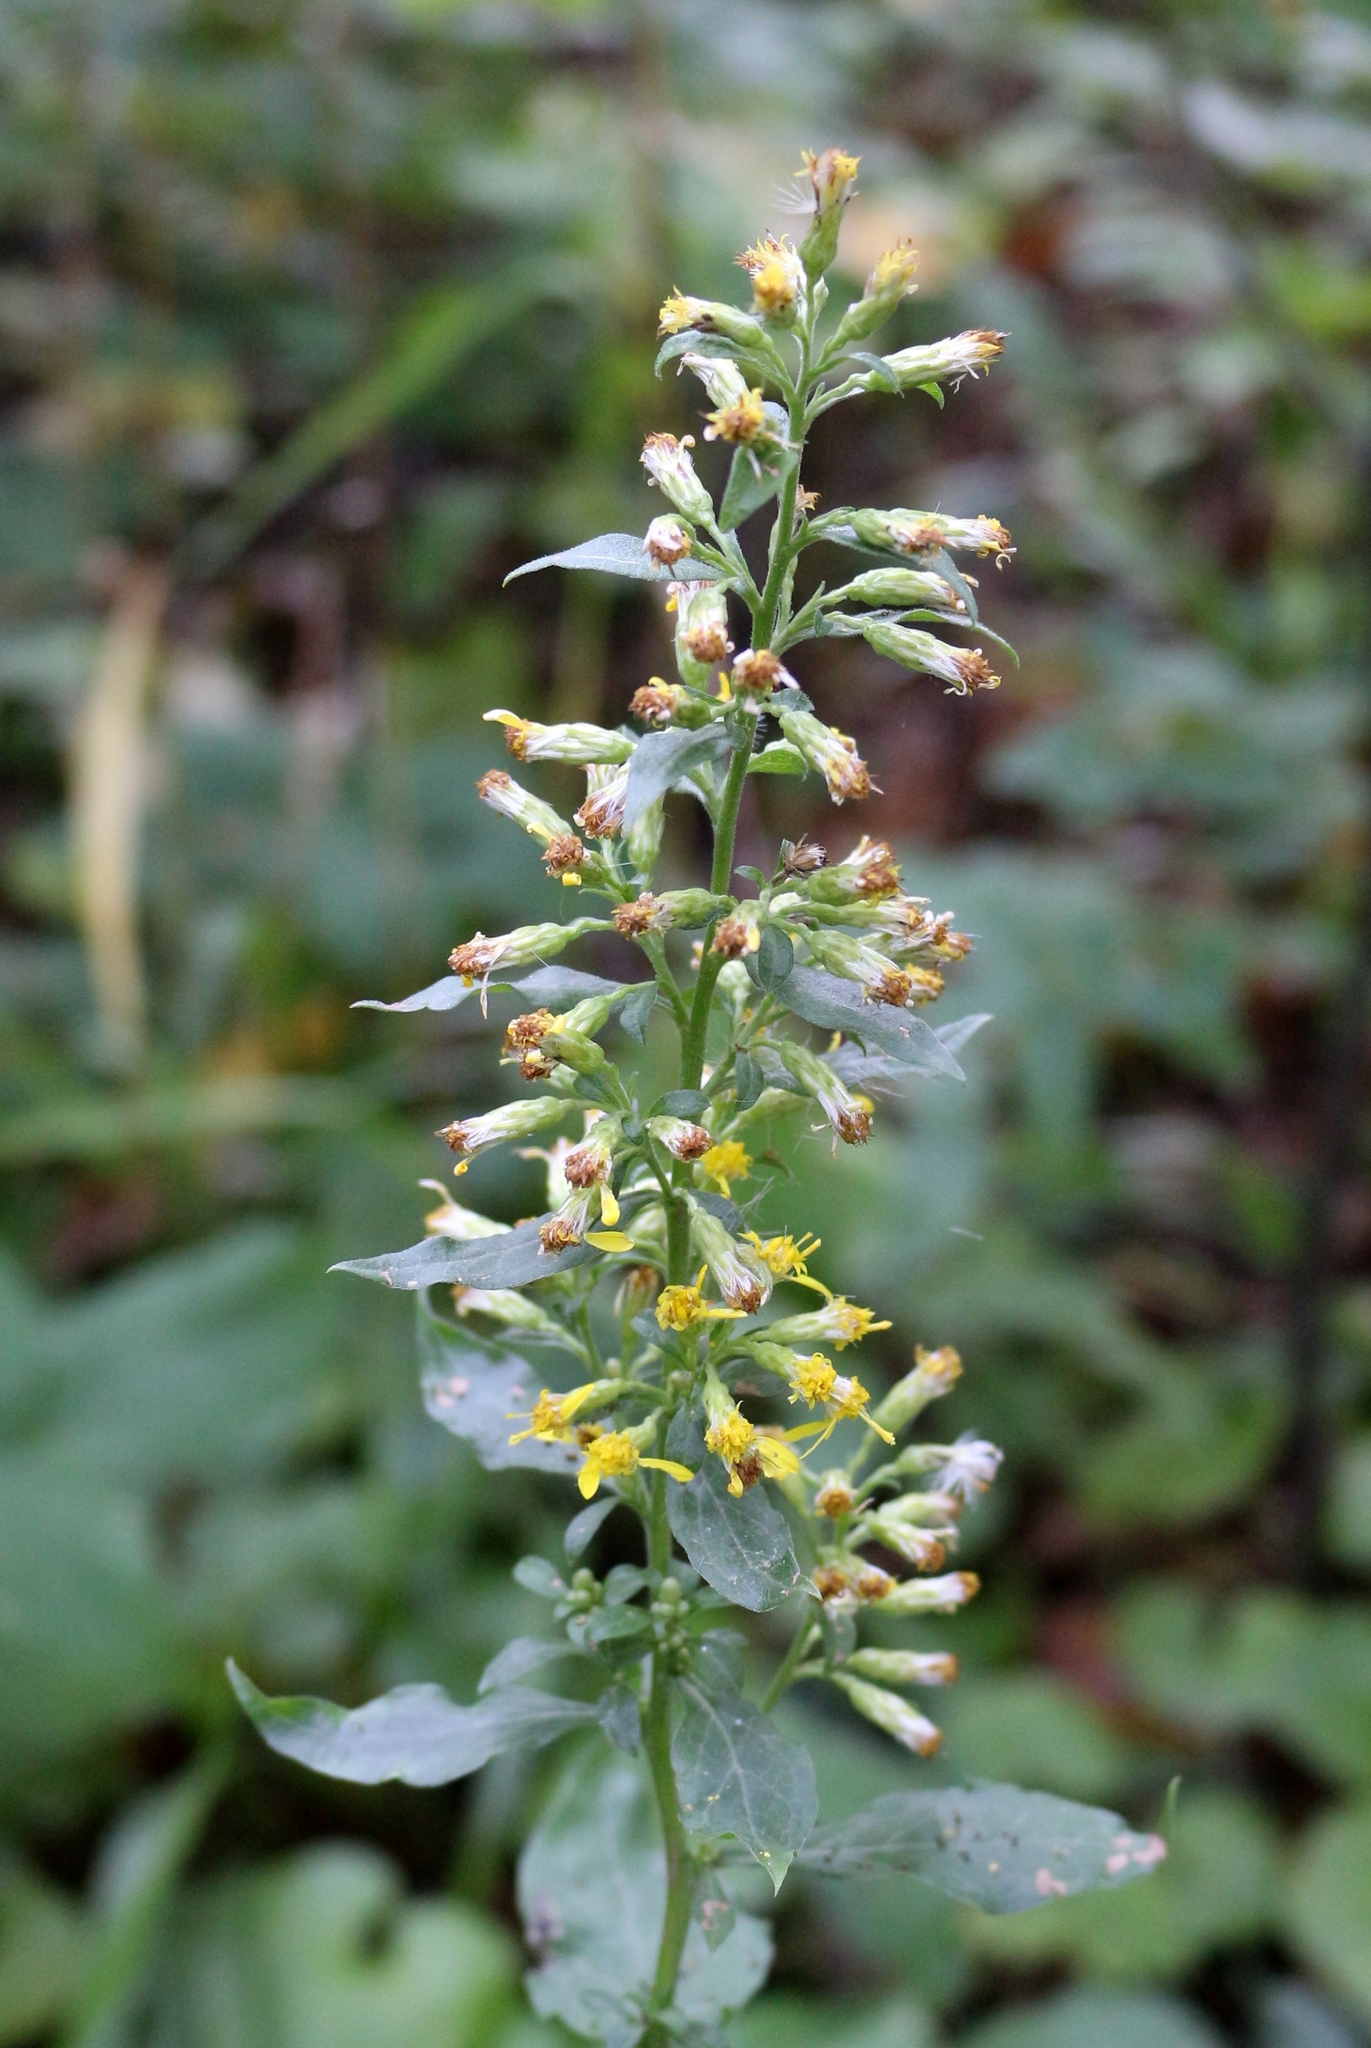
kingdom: Plantae
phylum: Tracheophyta
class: Magnoliopsida
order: Asterales
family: Asteraceae
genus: Solidago
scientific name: Solidago virgaurea
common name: Goldenrod
